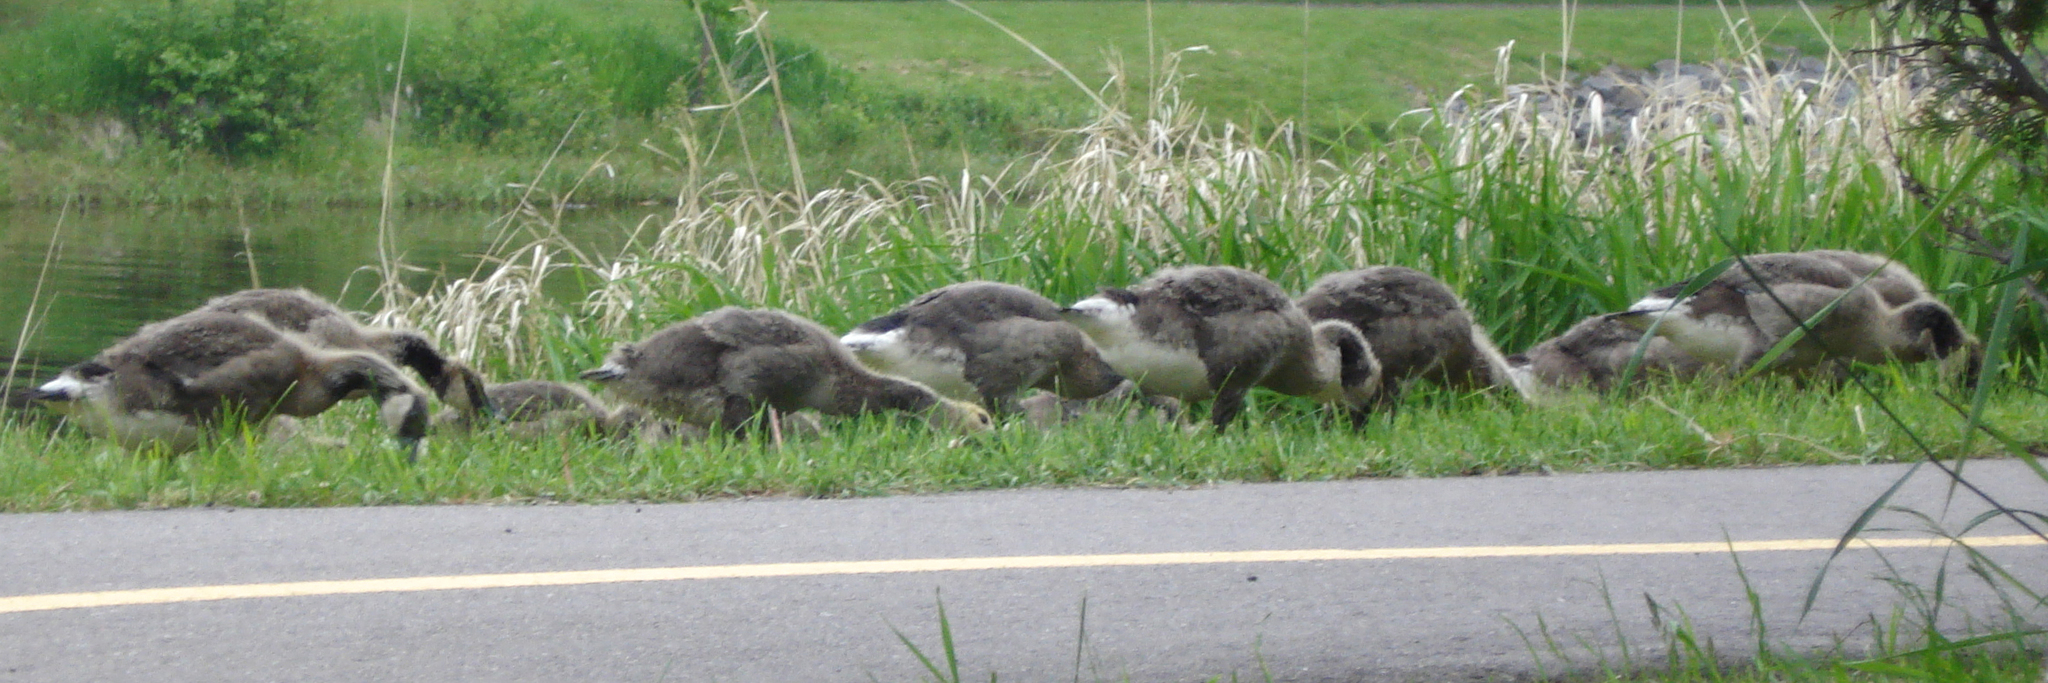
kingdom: Animalia
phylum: Chordata
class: Aves
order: Anseriformes
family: Anatidae
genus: Branta
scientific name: Branta canadensis
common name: Canada goose
